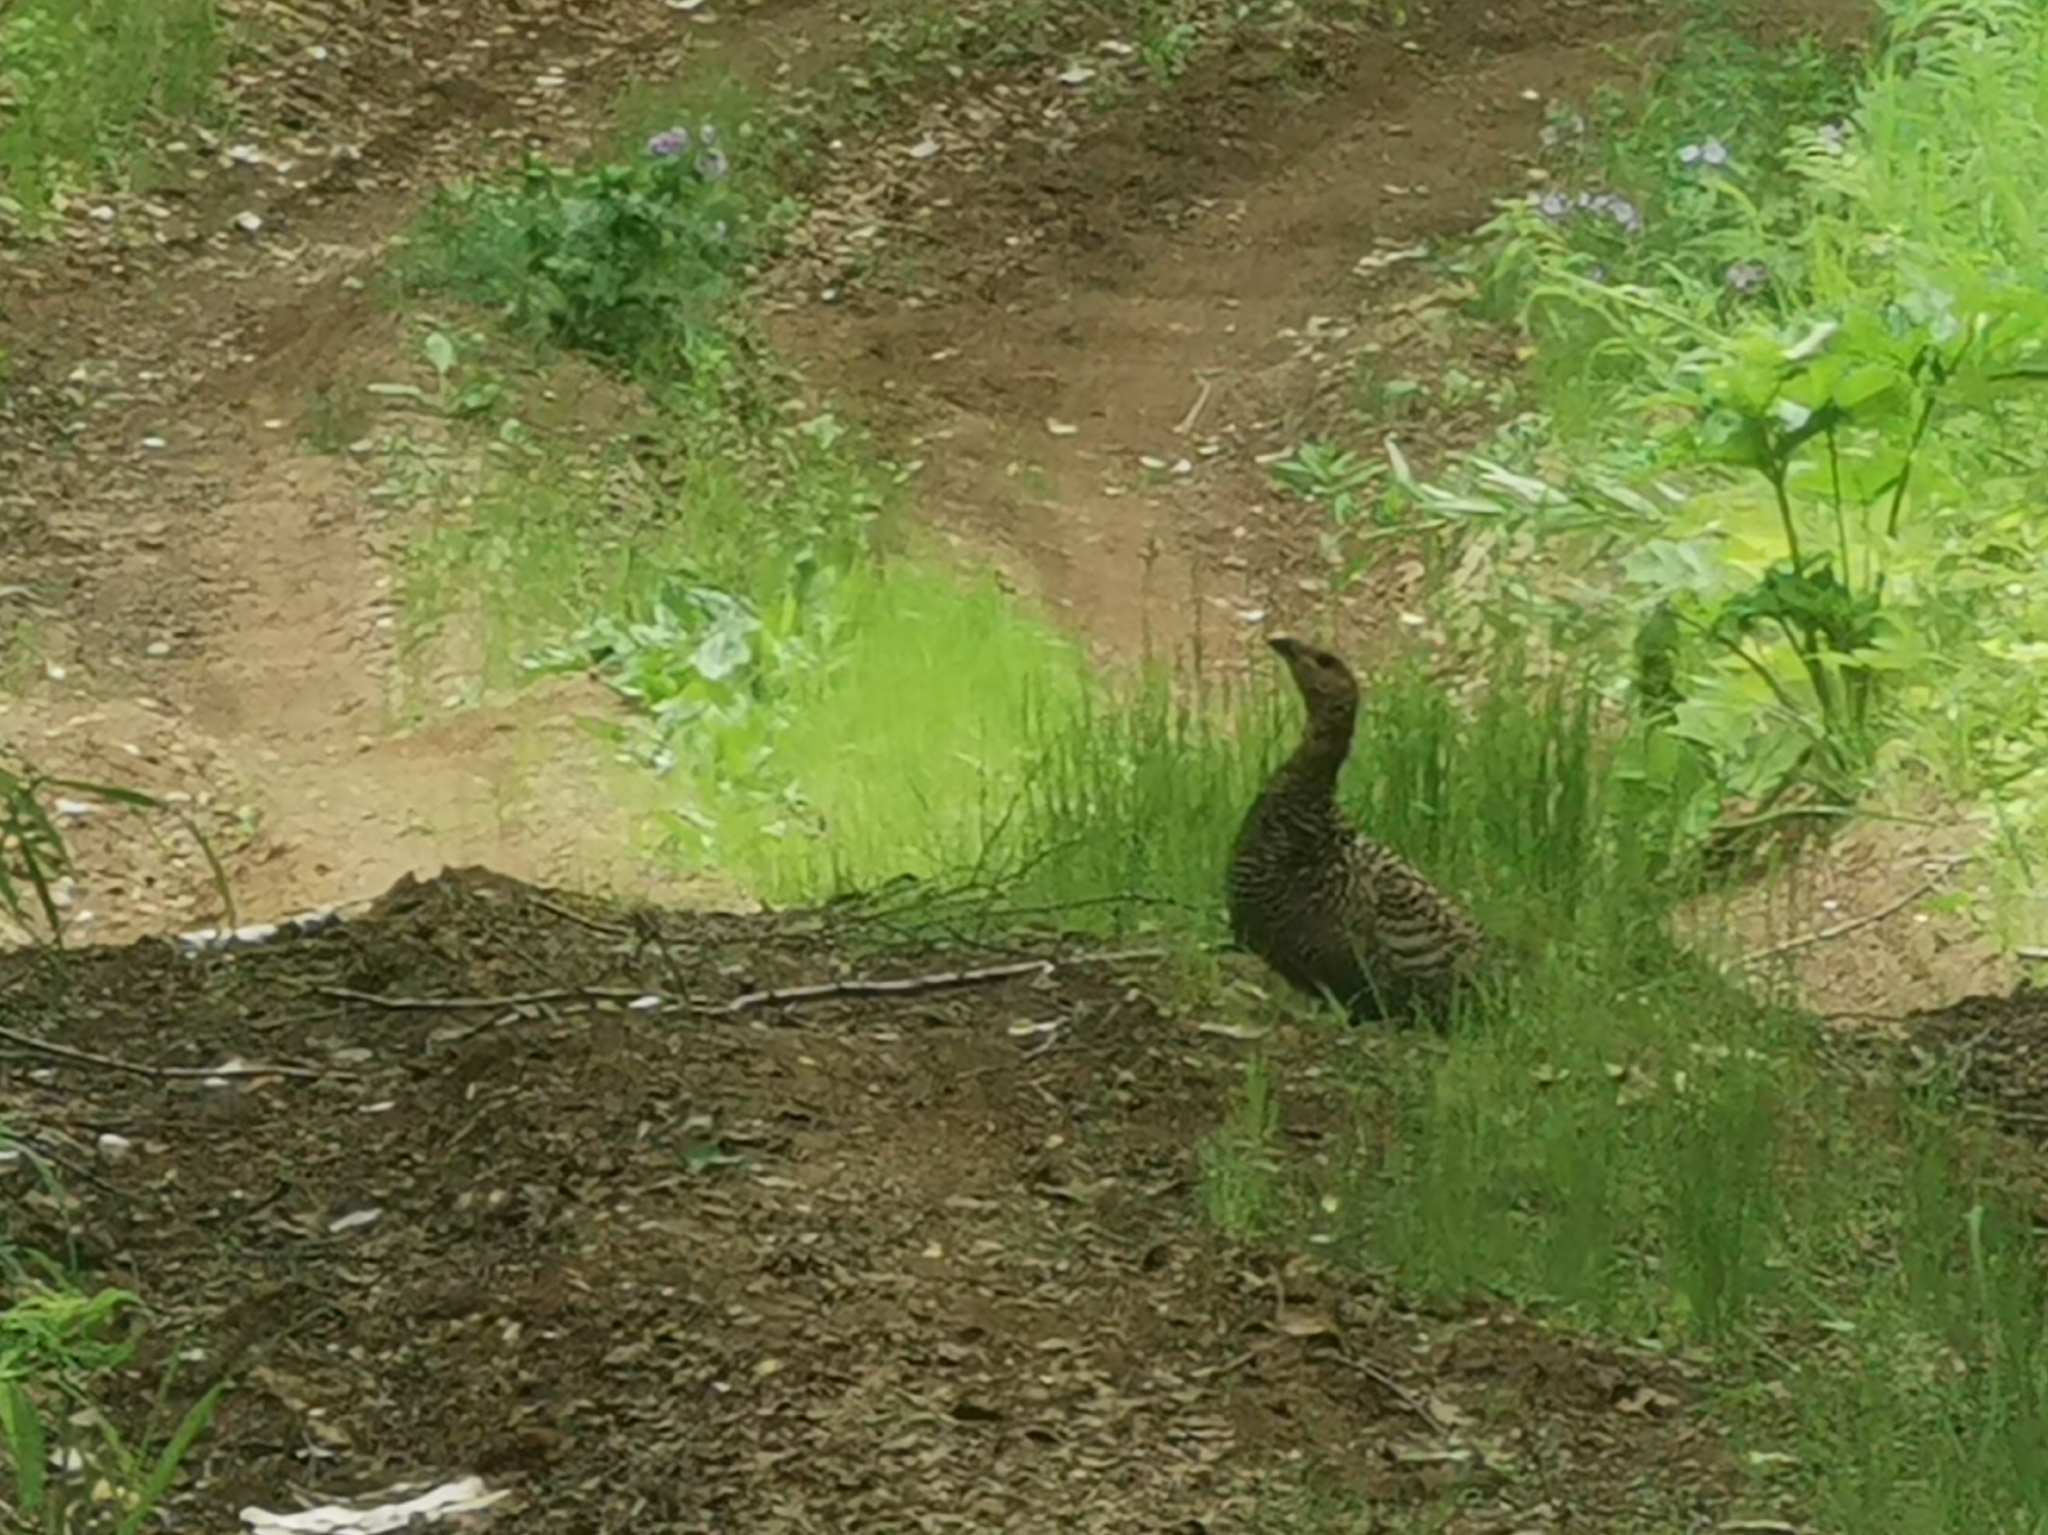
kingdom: Animalia
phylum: Chordata
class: Aves
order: Galliformes
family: Phasianidae
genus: Tetrao
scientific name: Tetrao urogalloides
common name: Black-billed capercaillie
